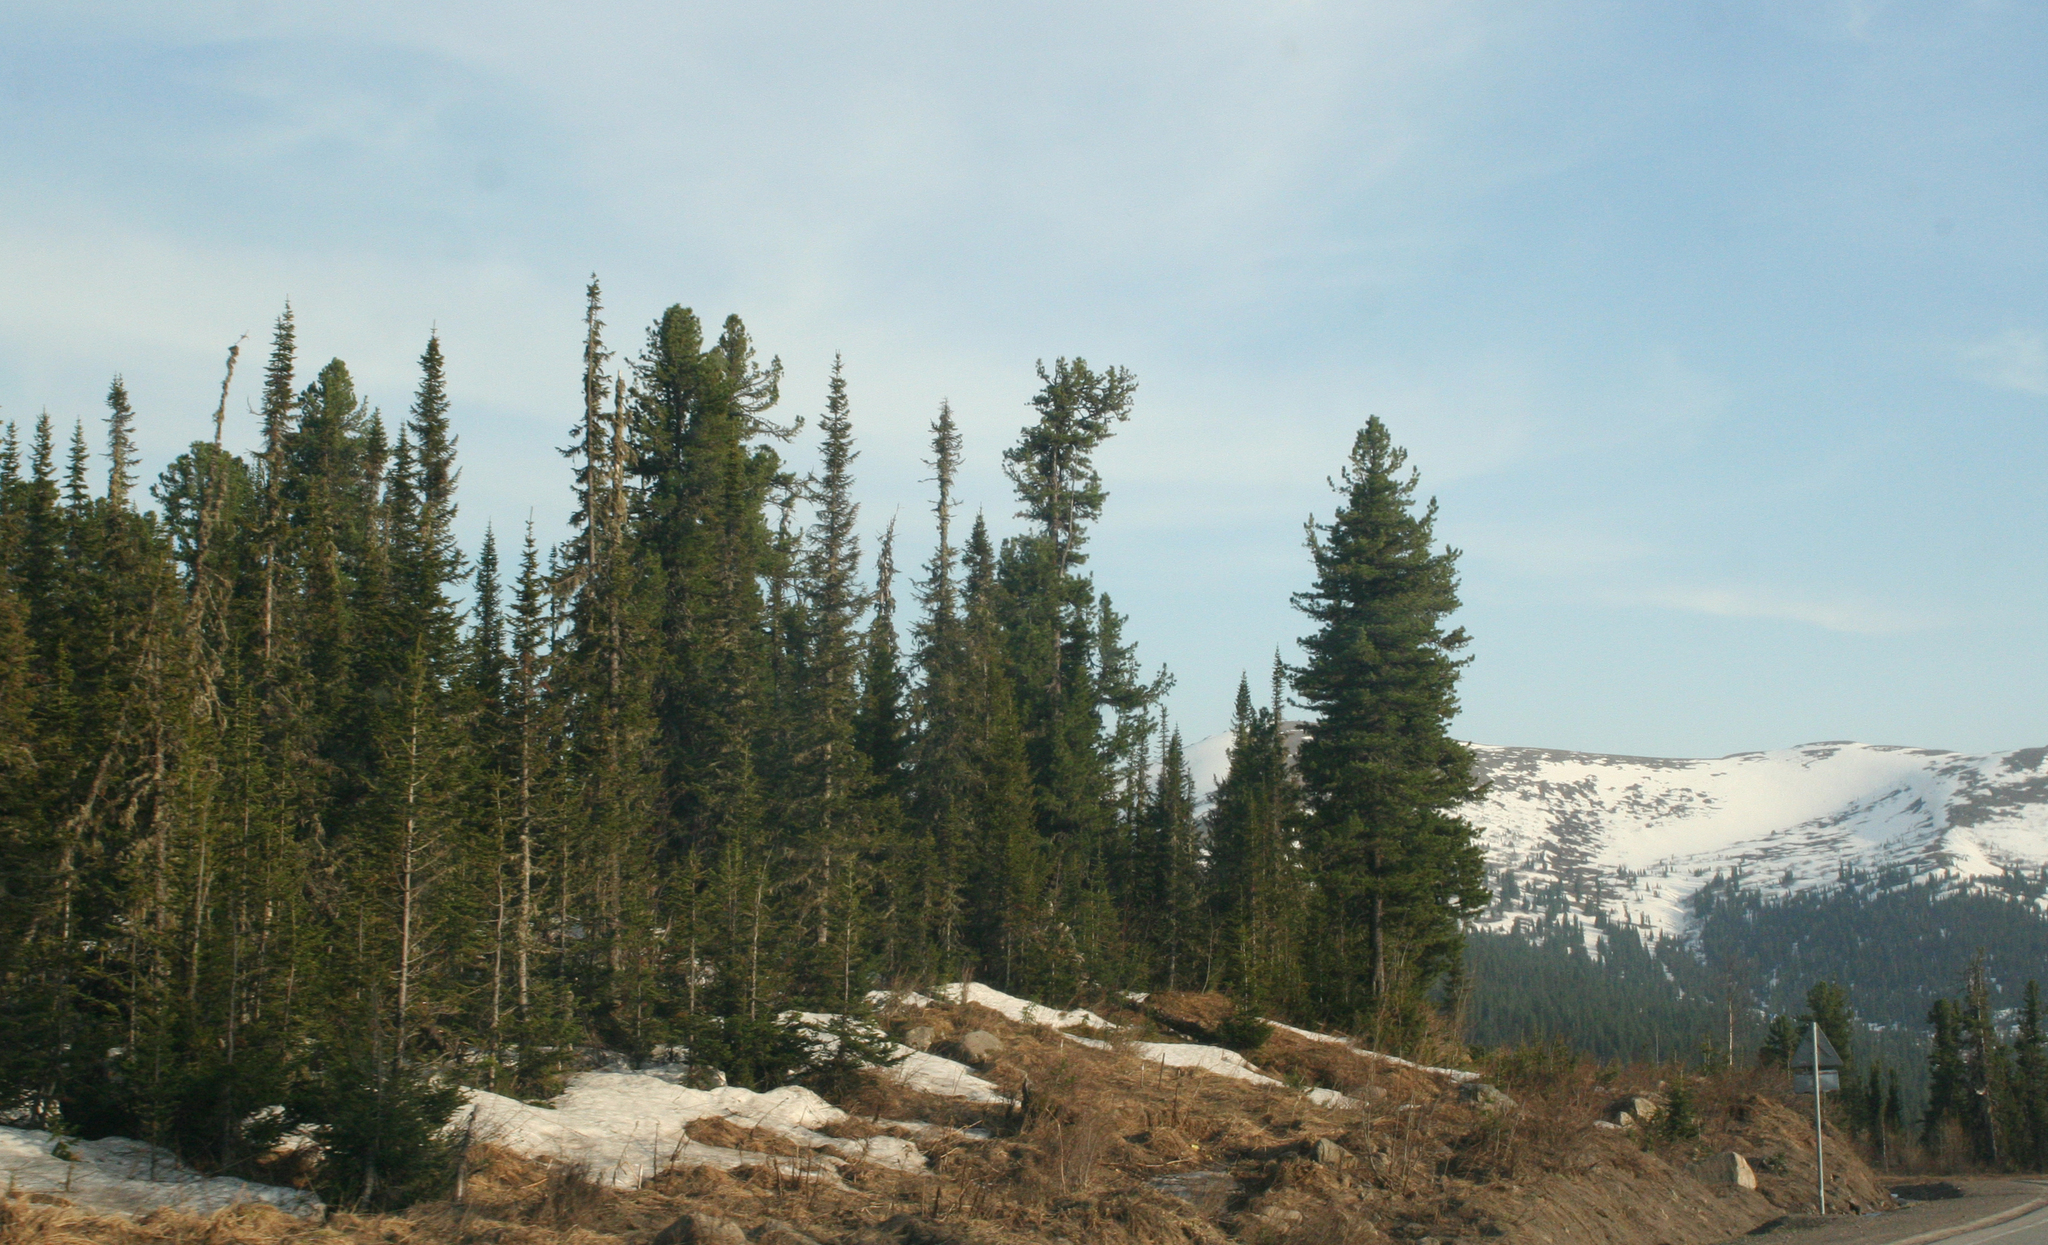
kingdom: Plantae
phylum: Tracheophyta
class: Pinopsida
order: Pinales
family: Pinaceae
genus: Pinus
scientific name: Pinus sibirica
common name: Siberian pine
